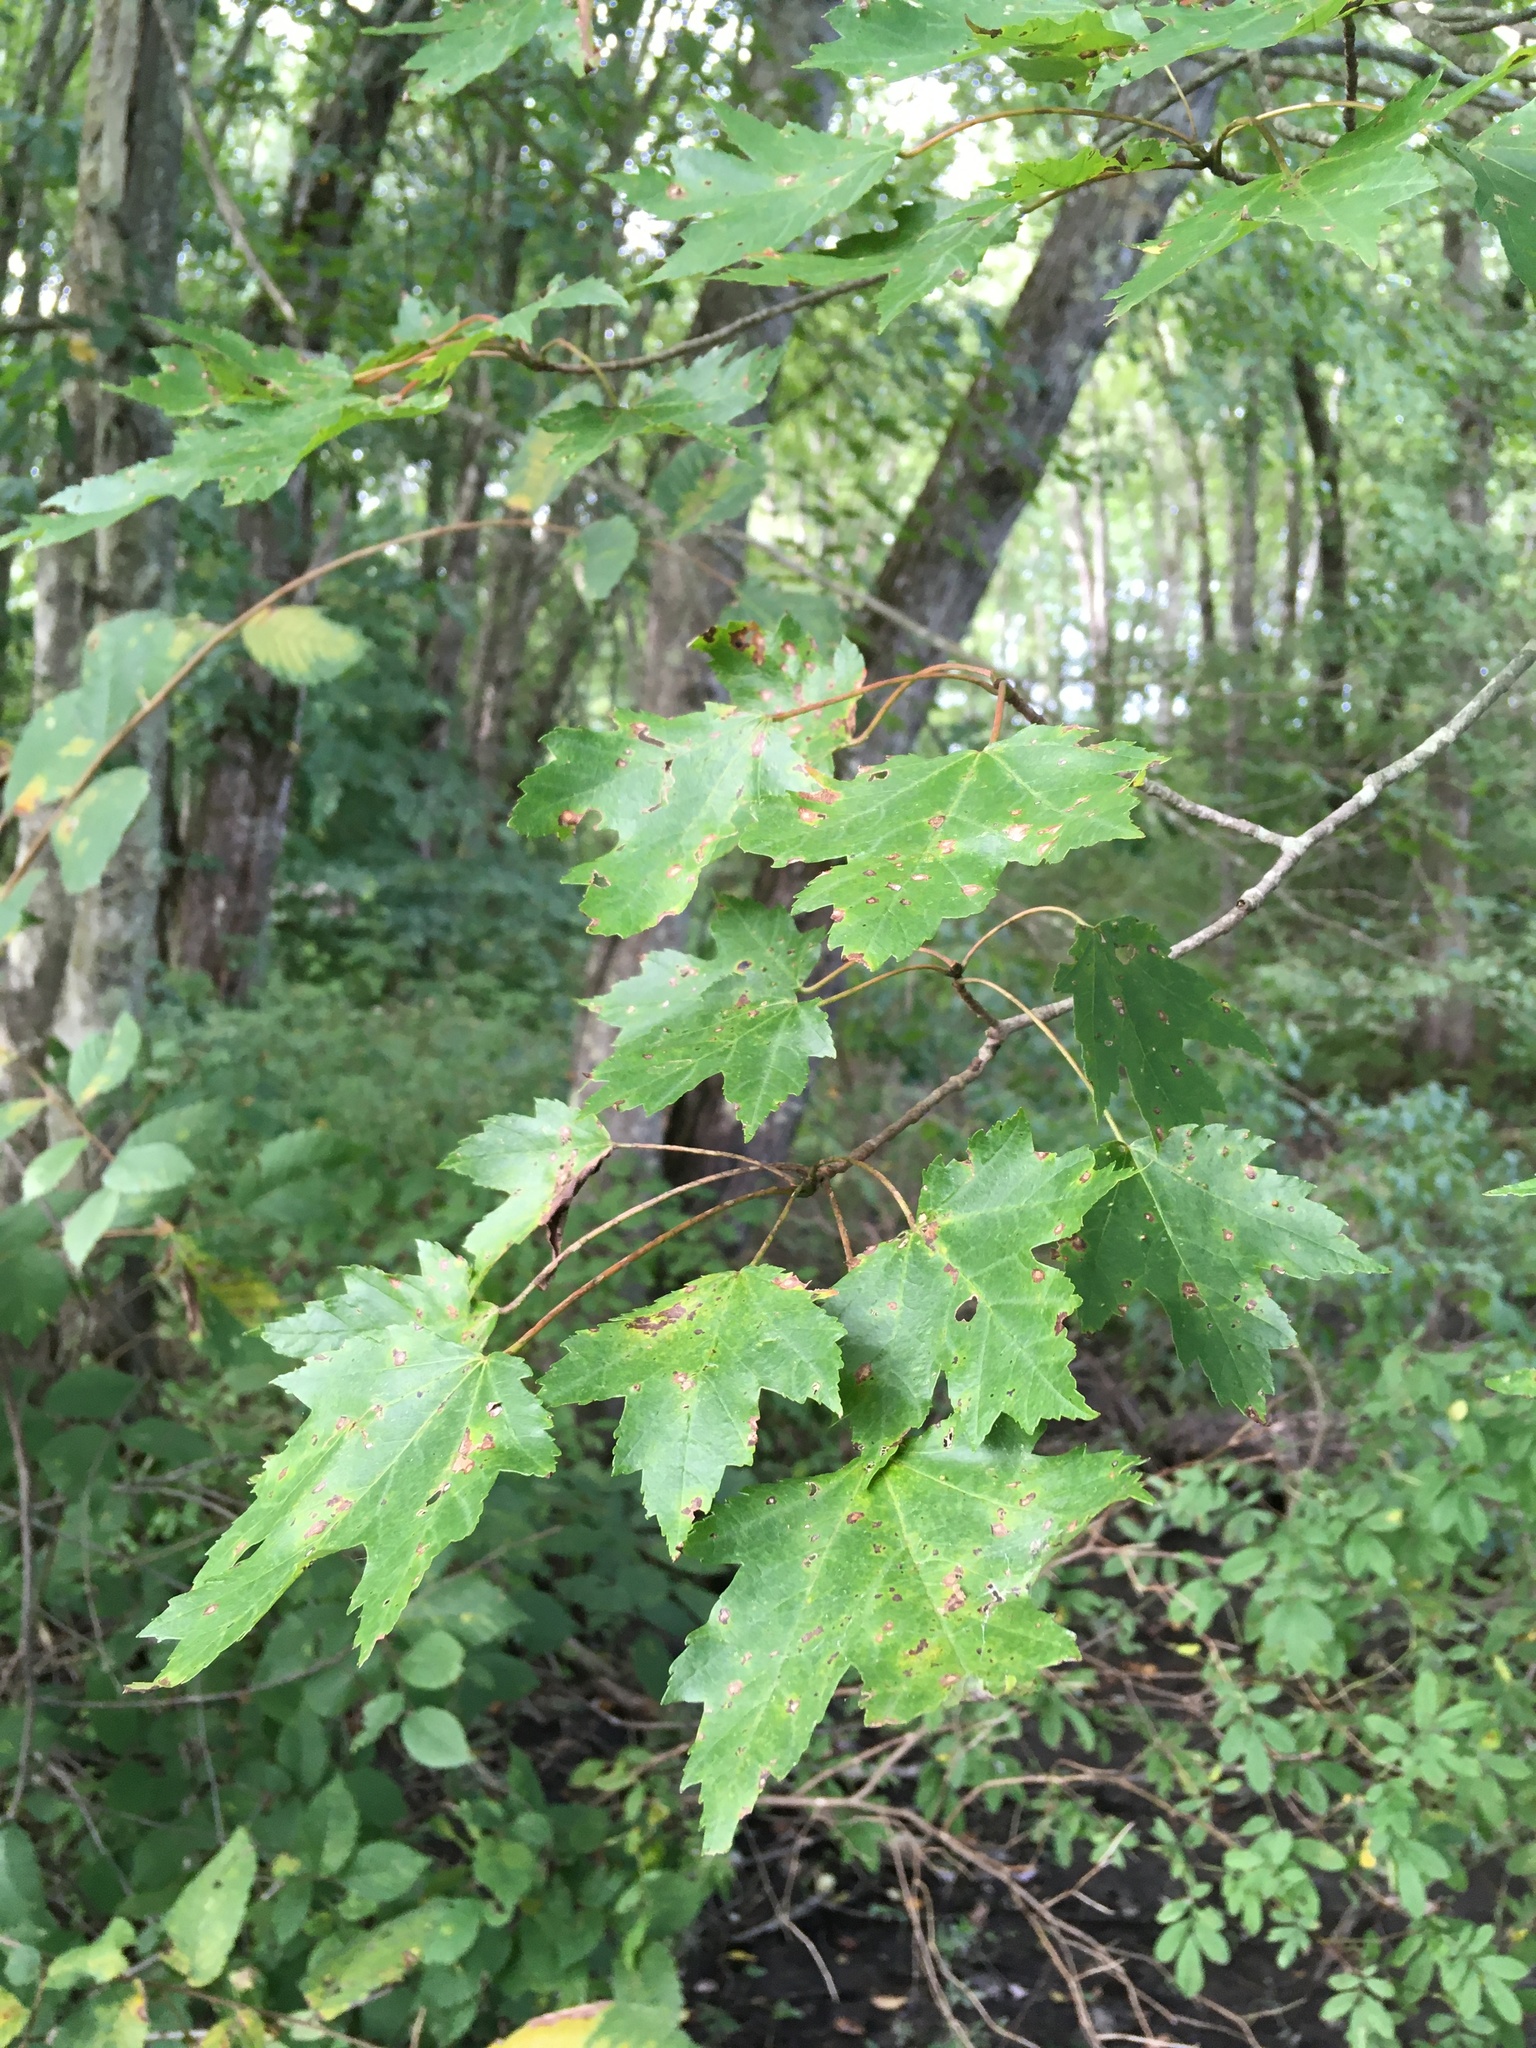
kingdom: Plantae
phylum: Tracheophyta
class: Magnoliopsida
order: Sapindales
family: Sapindaceae
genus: Acer
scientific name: Acer rubrum
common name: Red maple
